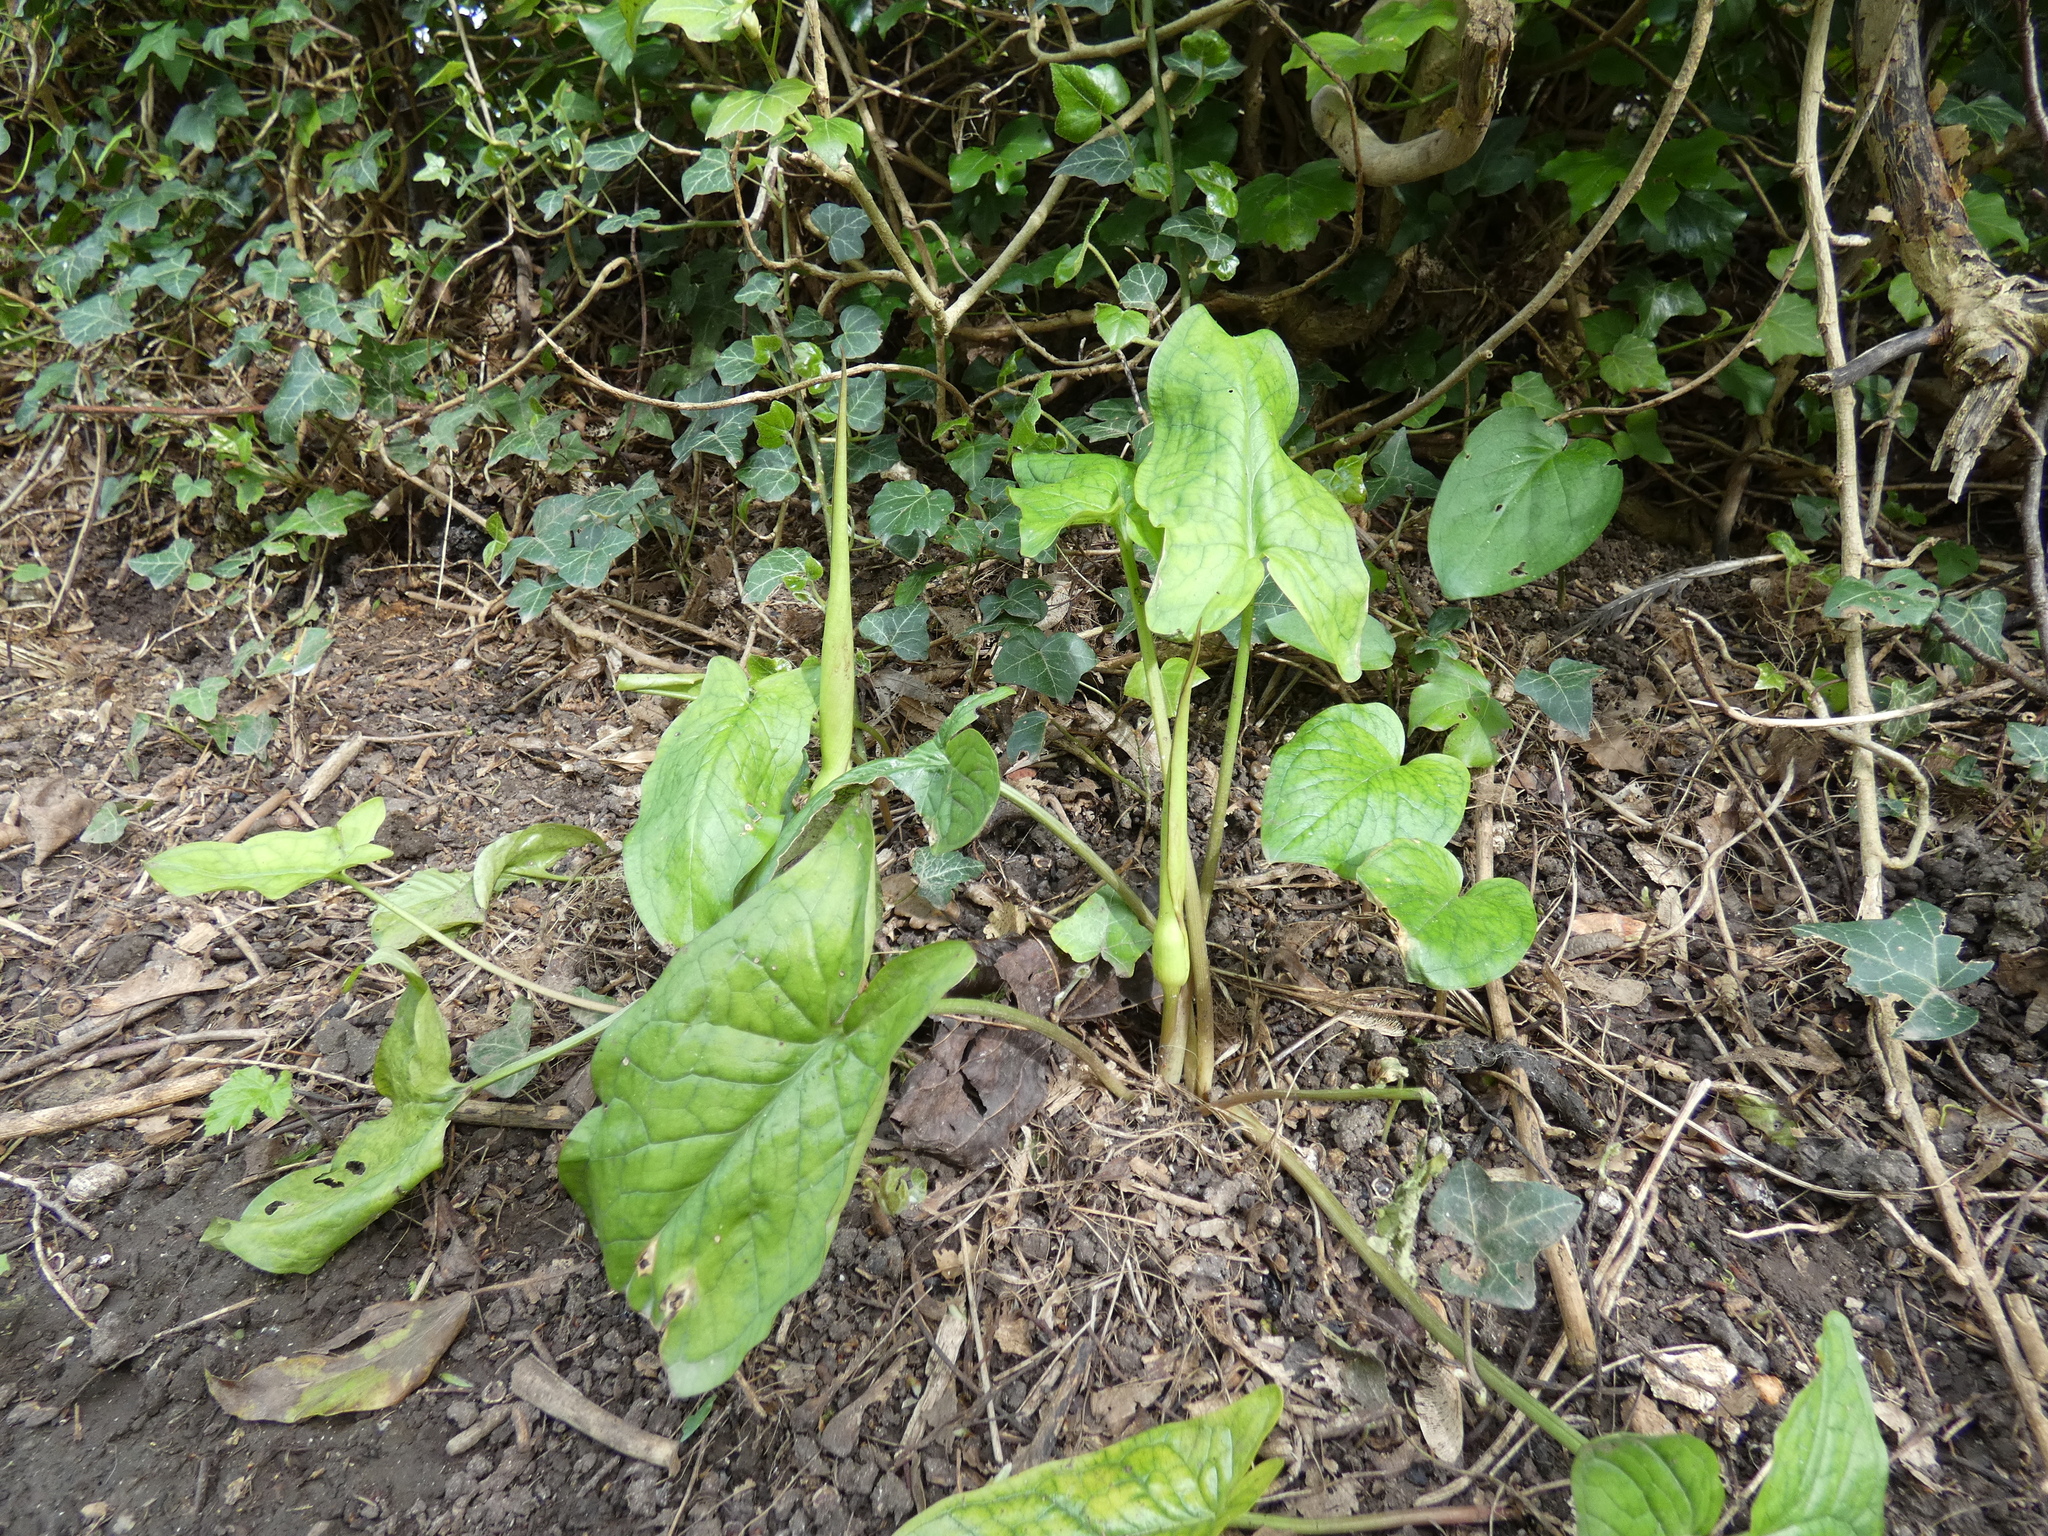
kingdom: Plantae
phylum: Tracheophyta
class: Liliopsida
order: Alismatales
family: Araceae
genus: Arum
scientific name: Arum maculatum
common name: Lords-and-ladies
